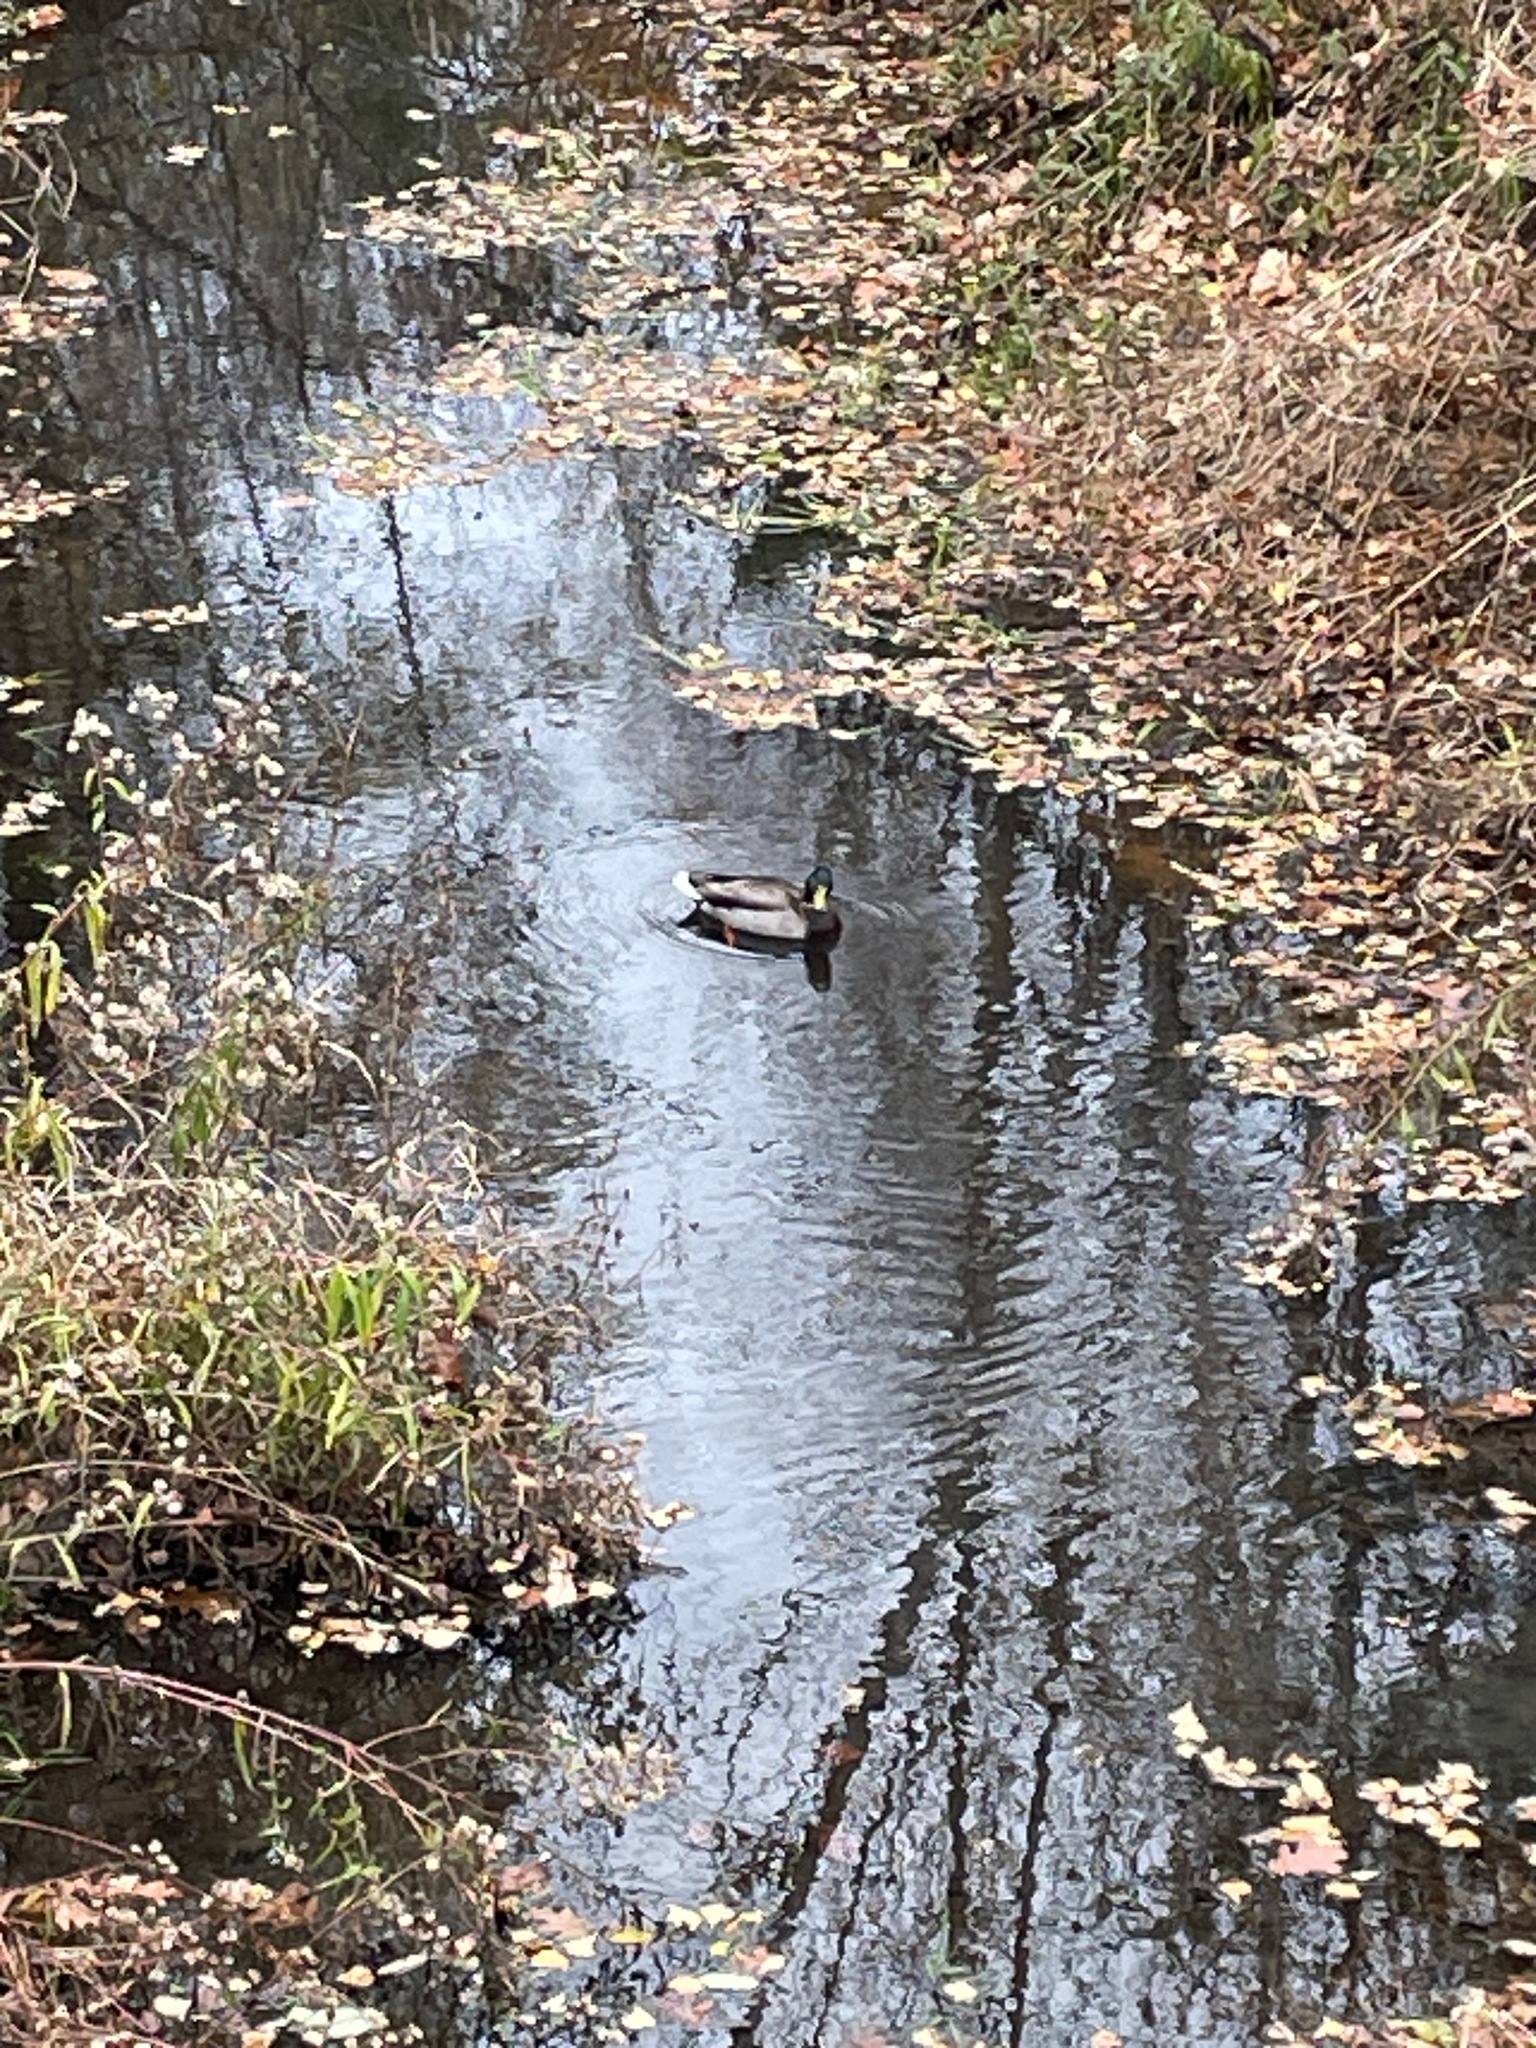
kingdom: Animalia
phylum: Chordata
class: Aves
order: Anseriformes
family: Anatidae
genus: Anas
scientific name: Anas platyrhynchos
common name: Mallard
